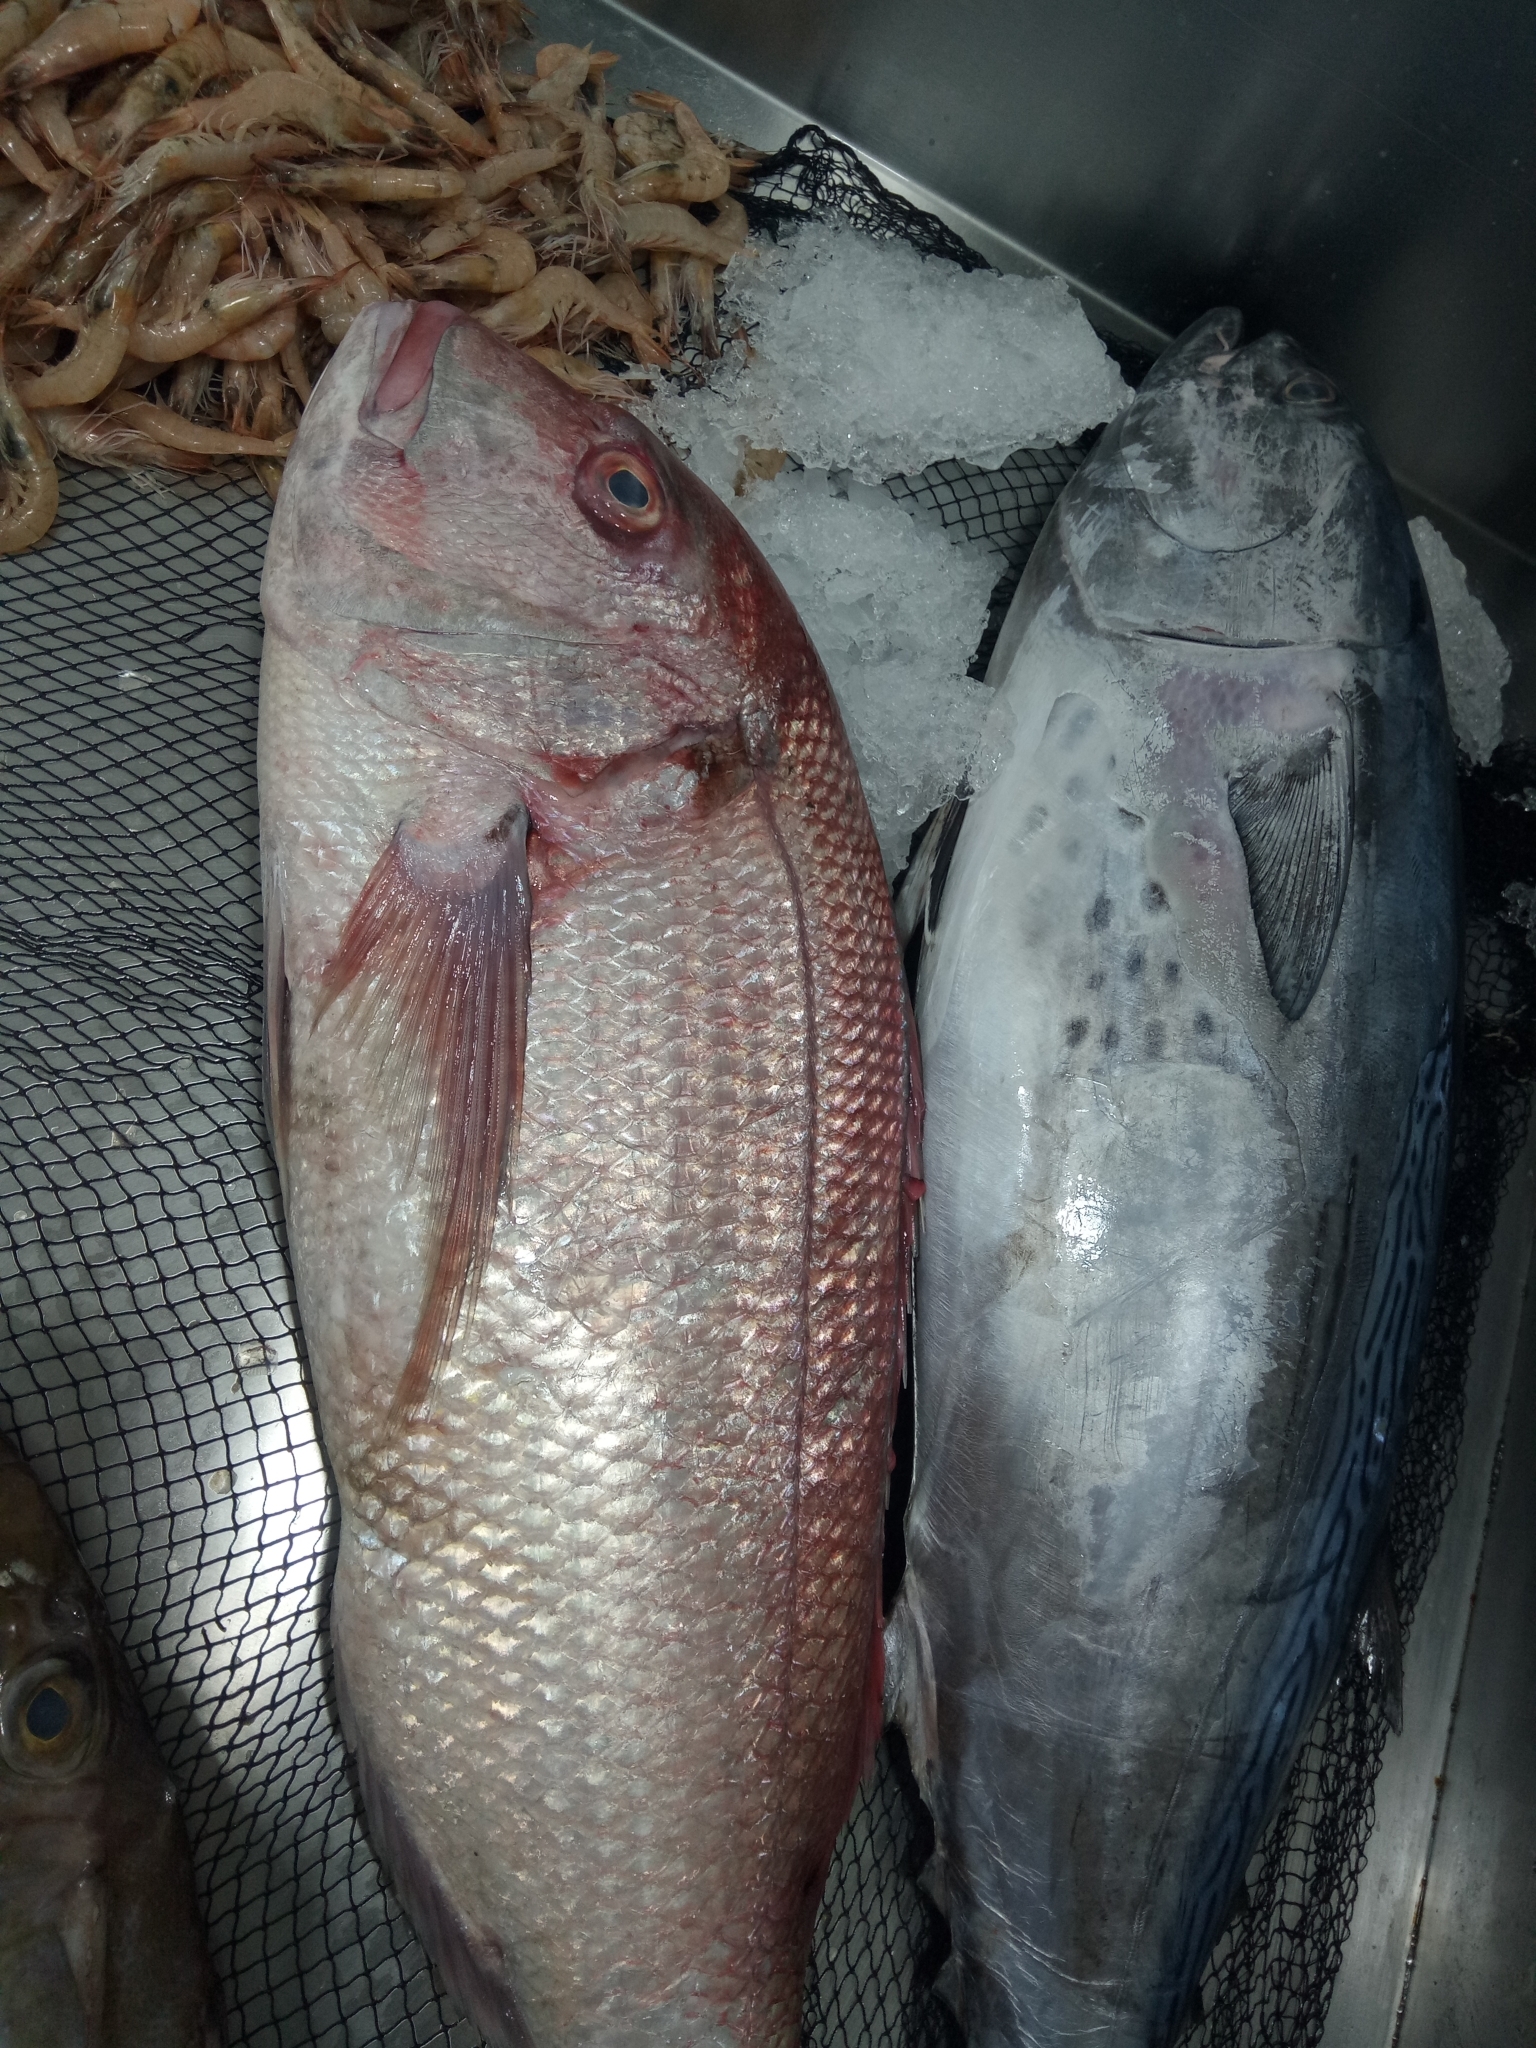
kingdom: Animalia
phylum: Chordata
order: Perciformes
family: Sparidae
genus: Dentex
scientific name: Dentex gibbosus
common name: Pink dentex
